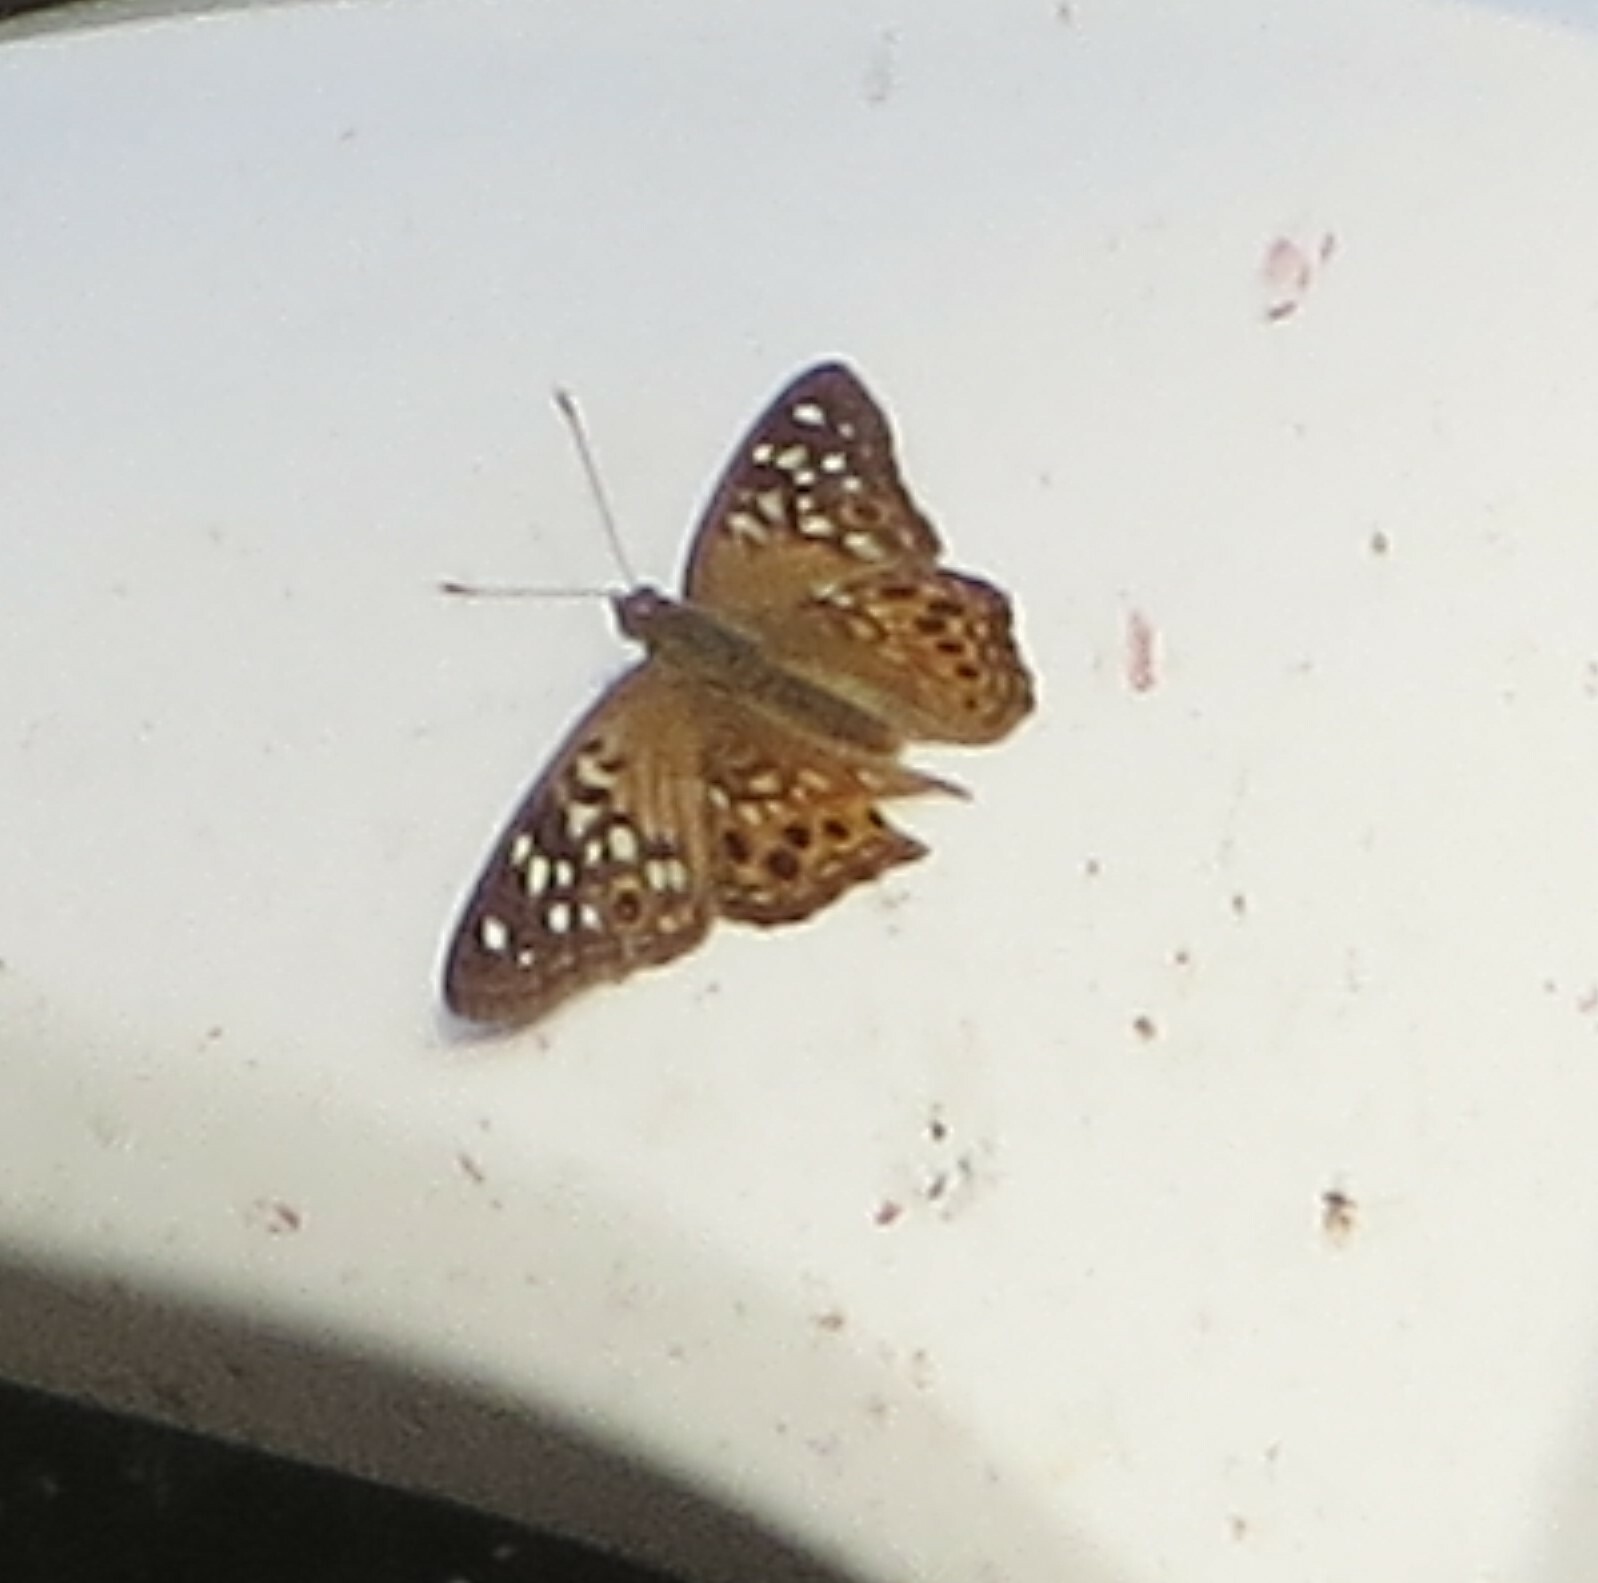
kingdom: Animalia
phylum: Arthropoda
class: Insecta
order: Lepidoptera
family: Nymphalidae
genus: Asterocampa
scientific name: Asterocampa celtis
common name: Hackberry emperor
